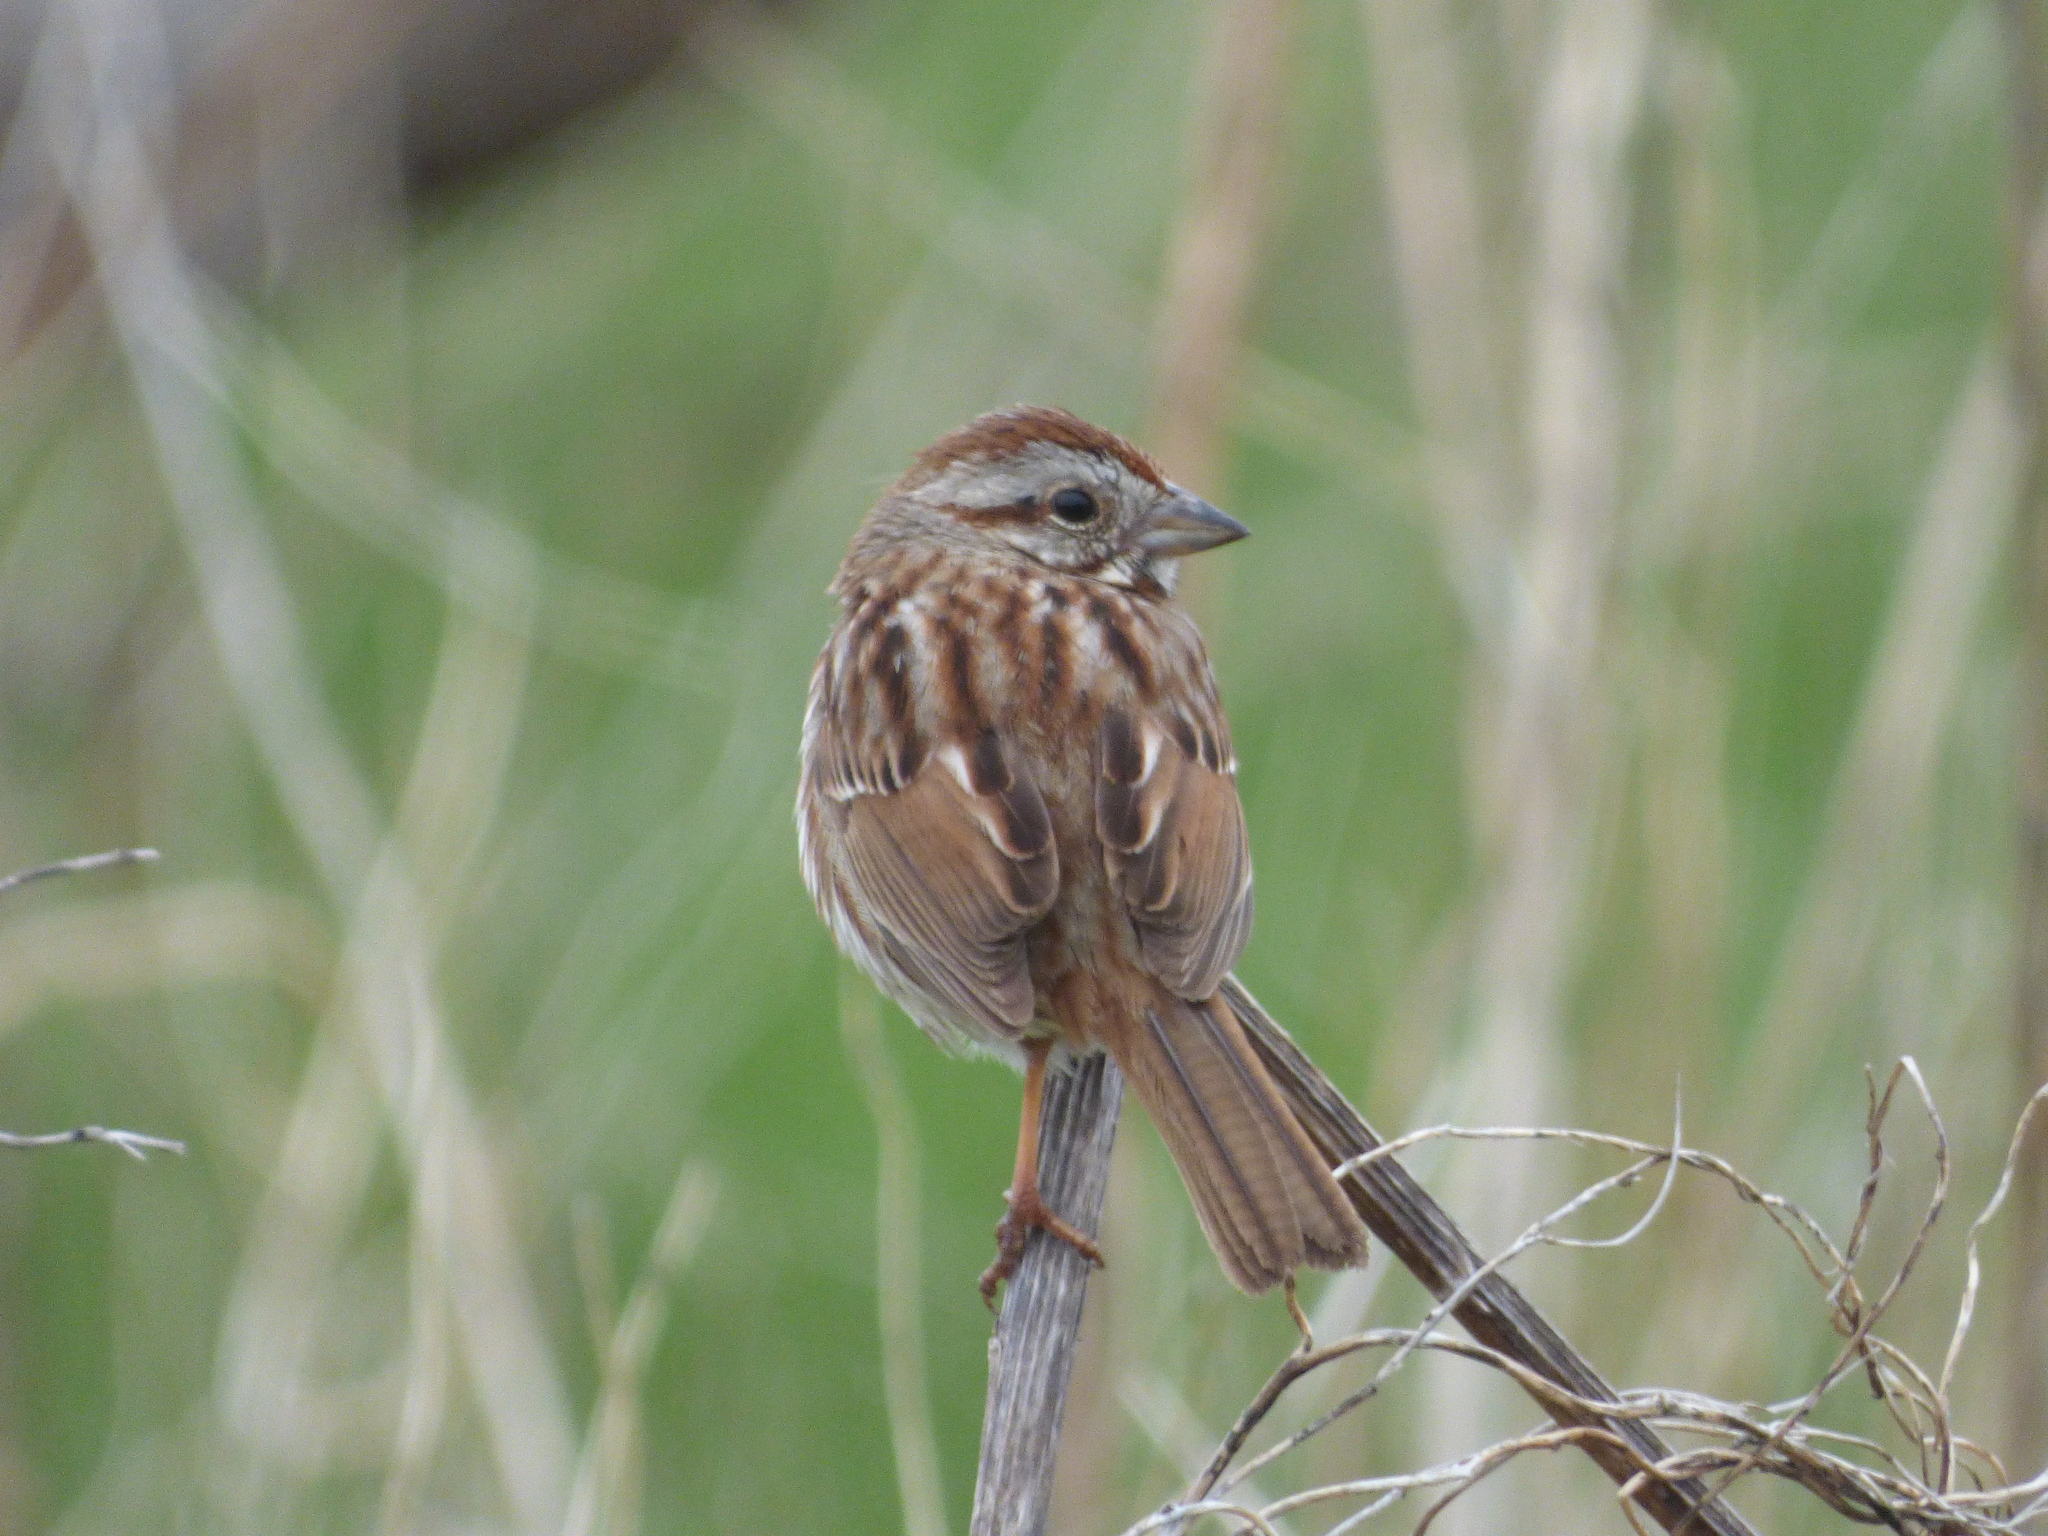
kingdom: Animalia
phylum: Chordata
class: Aves
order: Passeriformes
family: Passerellidae
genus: Melospiza
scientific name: Melospiza melodia
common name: Song sparrow
